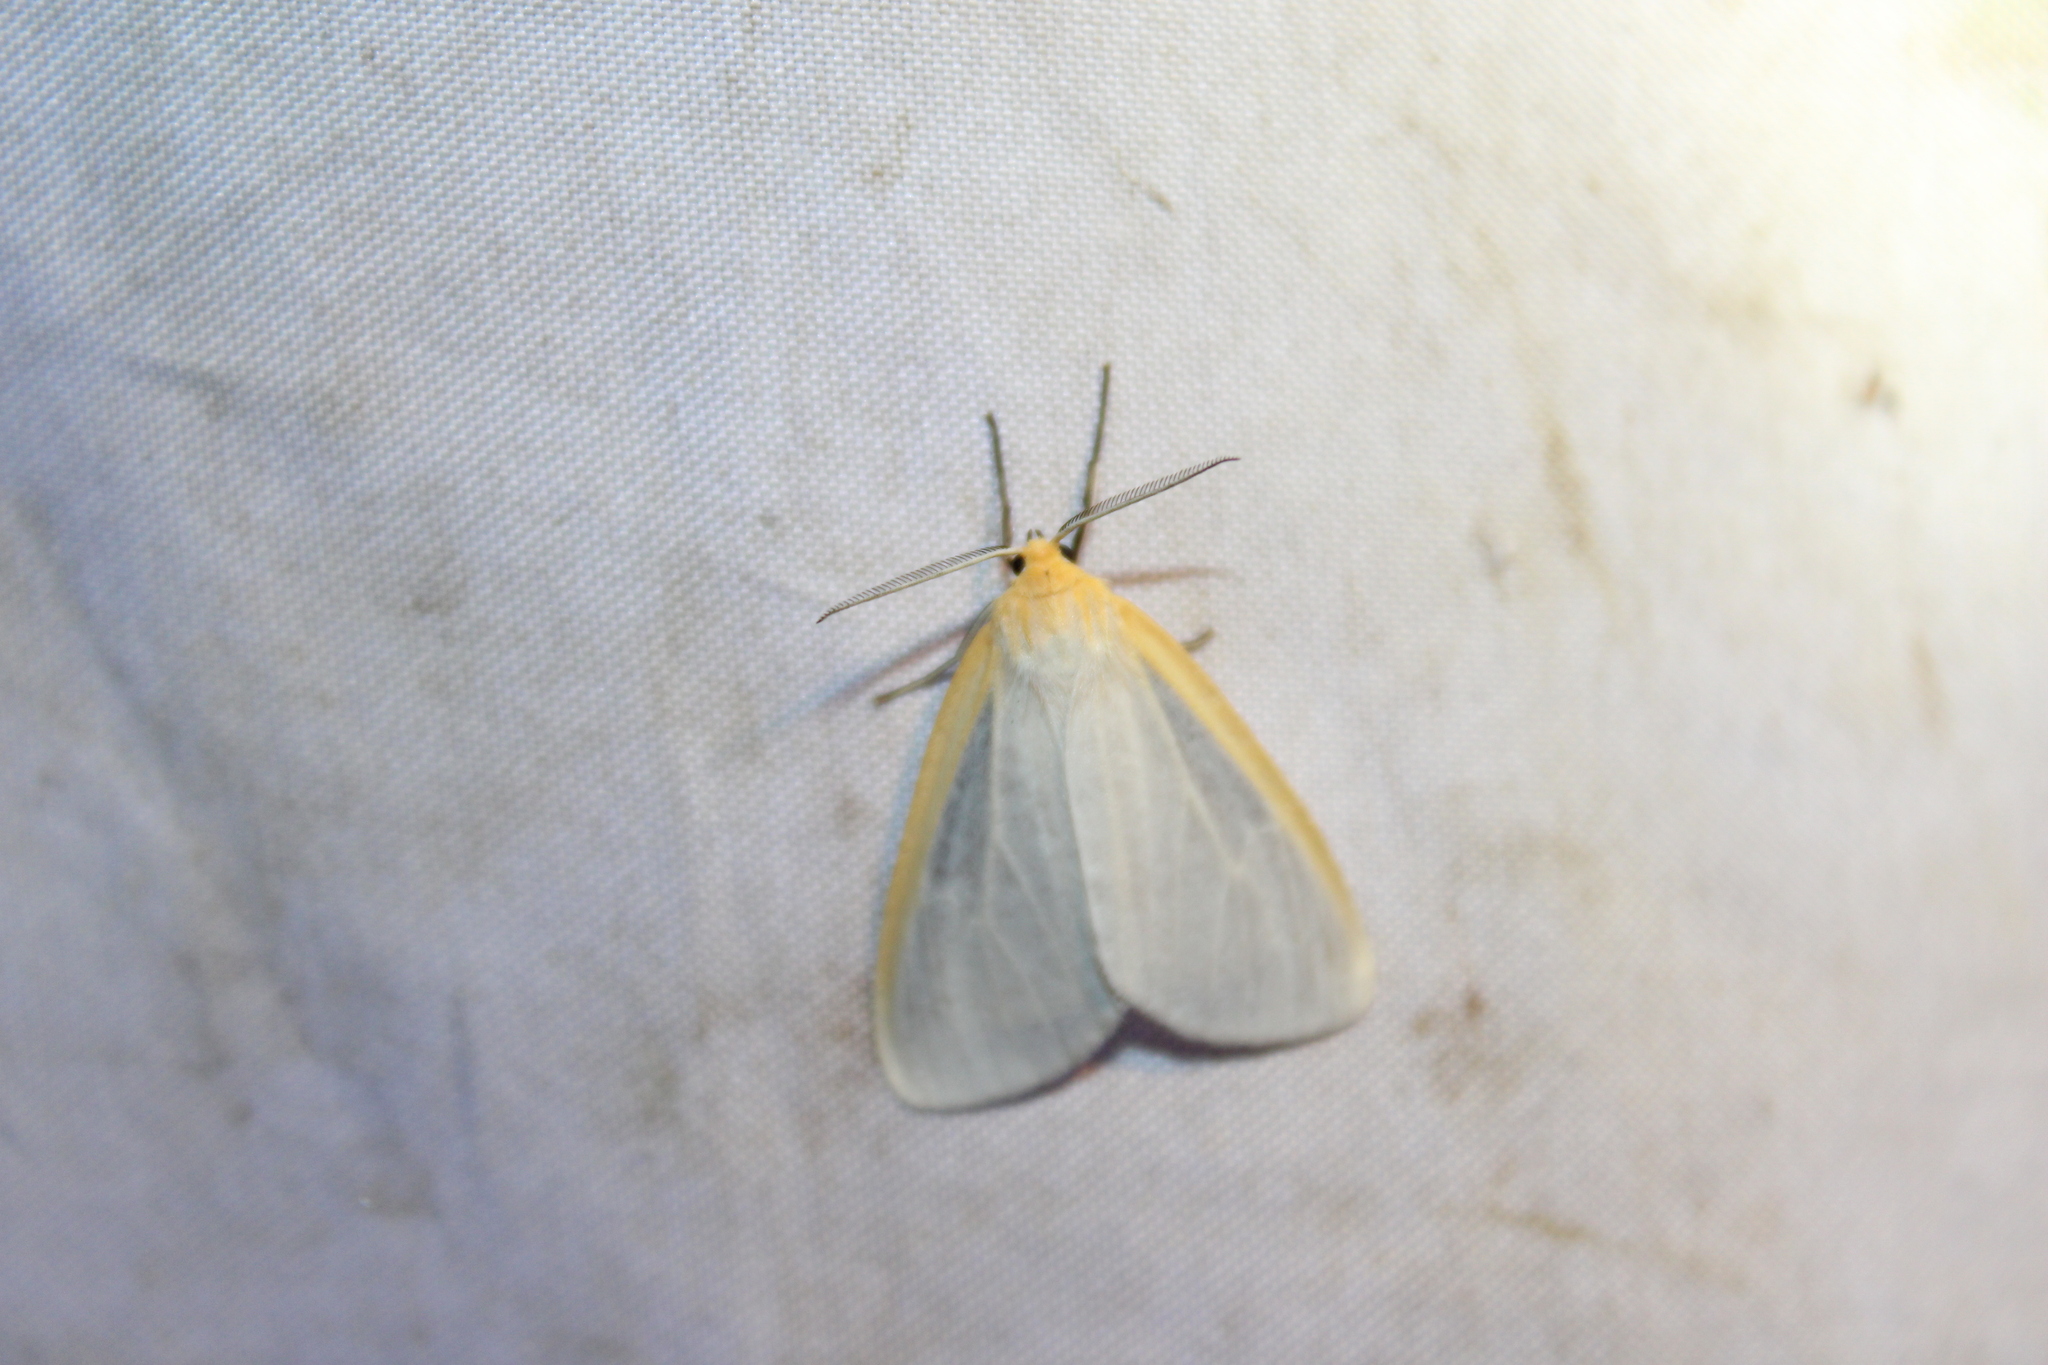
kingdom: Animalia
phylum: Arthropoda
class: Insecta
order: Lepidoptera
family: Erebidae
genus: Cycnia
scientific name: Cycnia tenera
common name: Delicate cycnia moth
